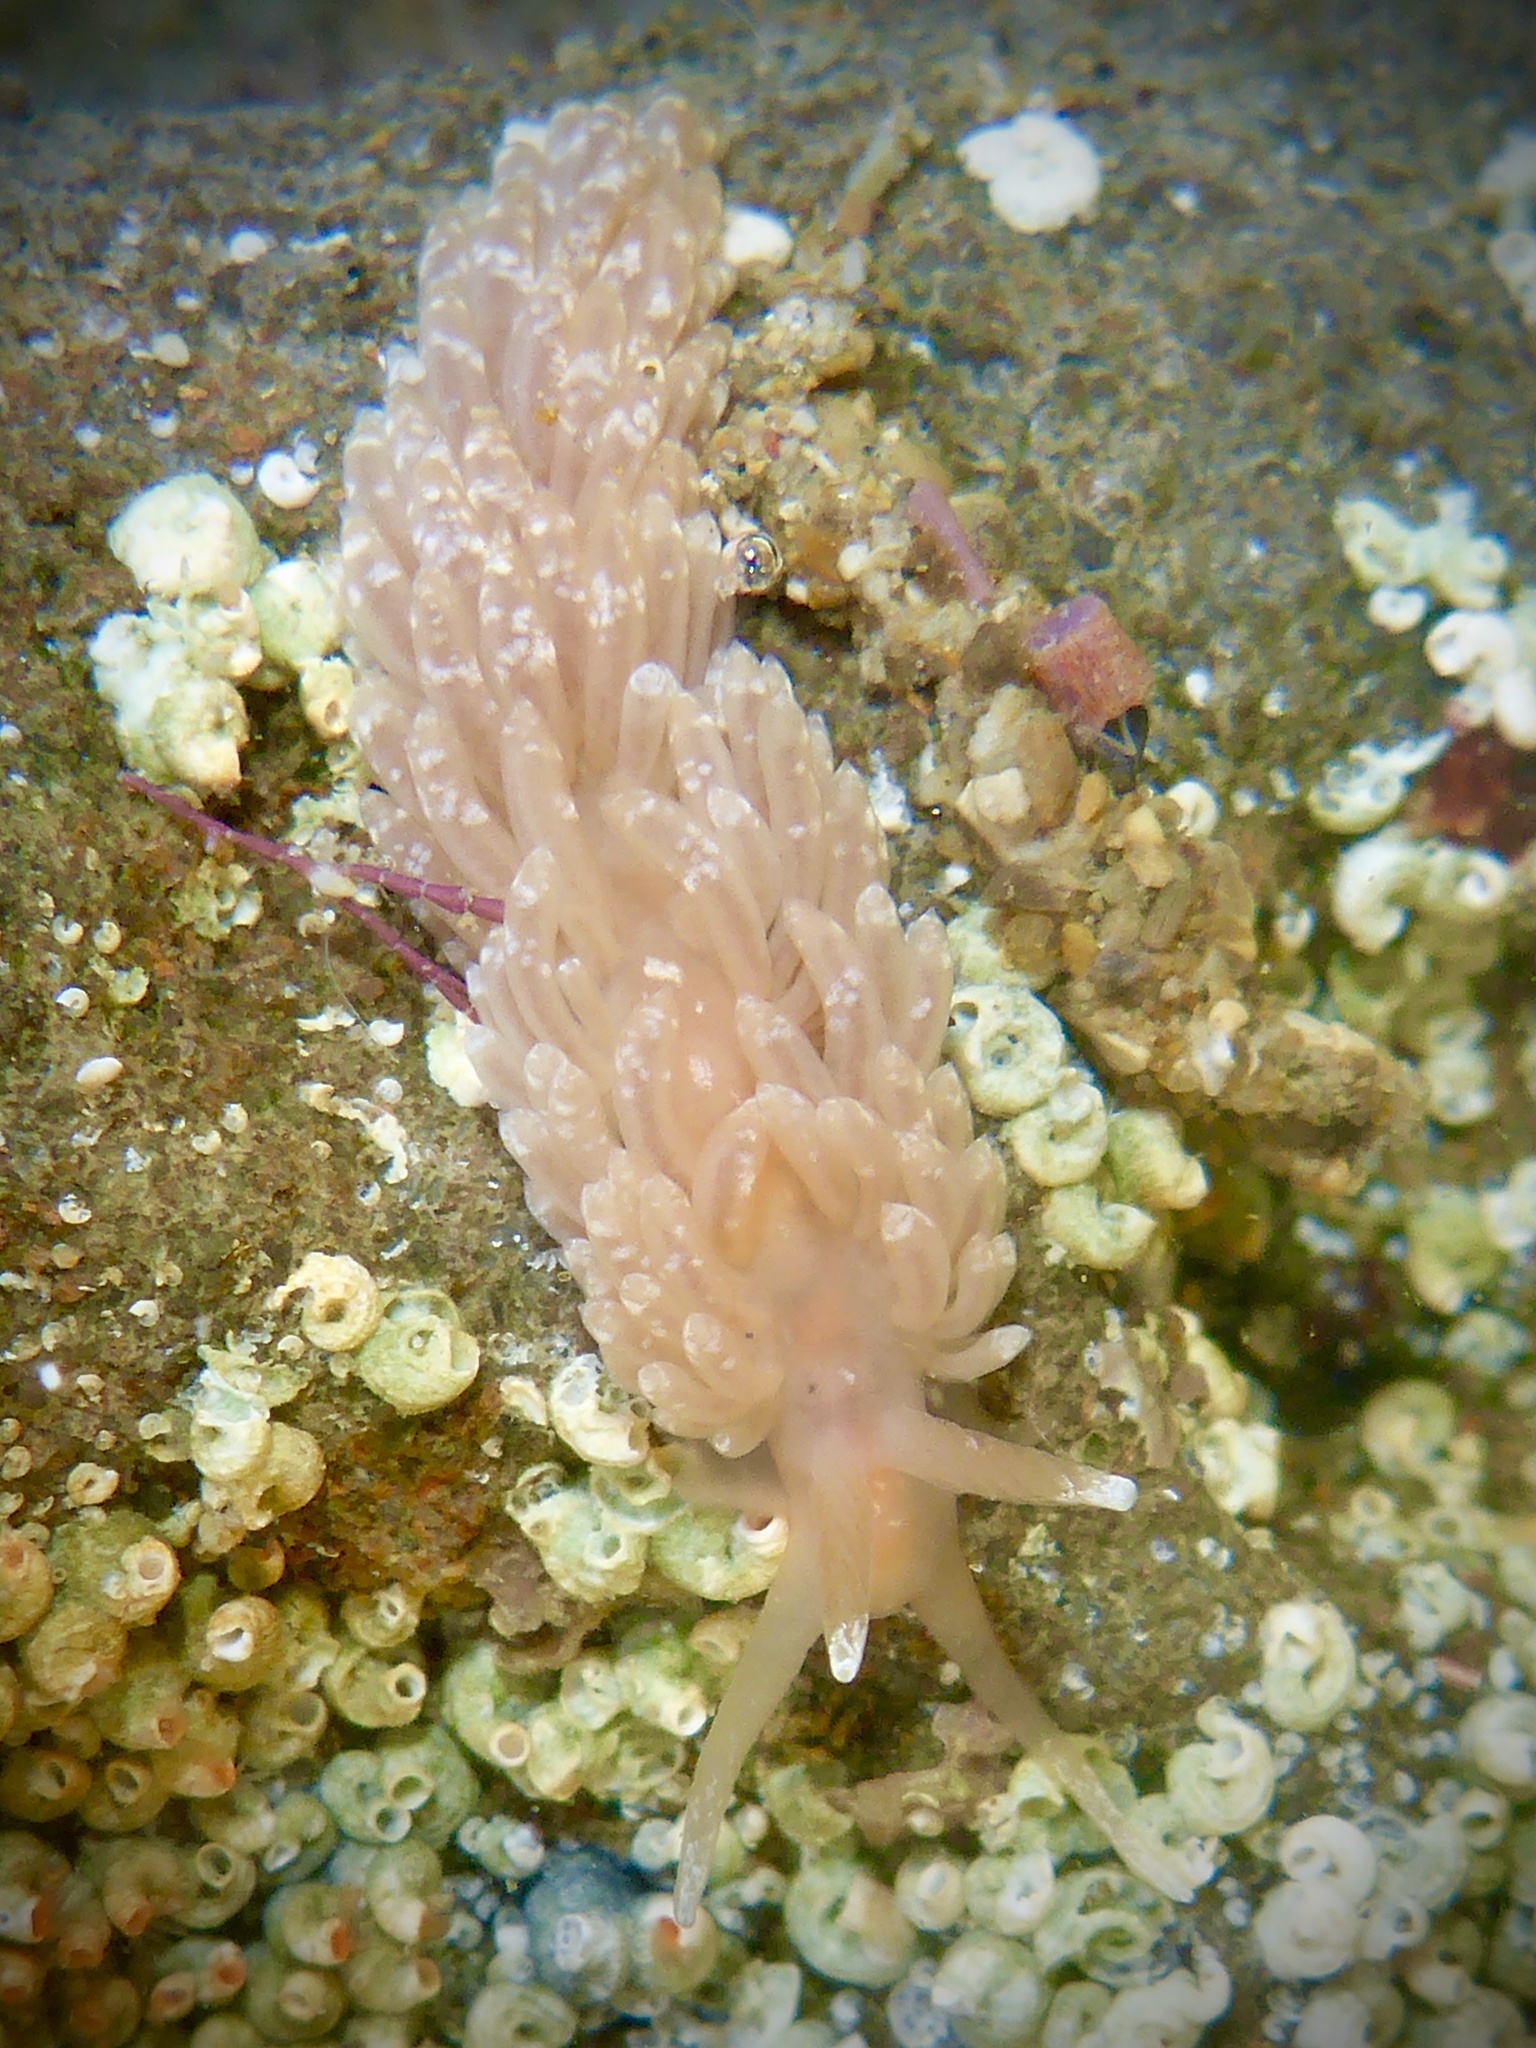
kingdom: Animalia
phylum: Mollusca
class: Gastropoda
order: Nudibranchia
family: Aeolidiidae
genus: Anteaeolidiella
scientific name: Anteaeolidiella chromosoma
